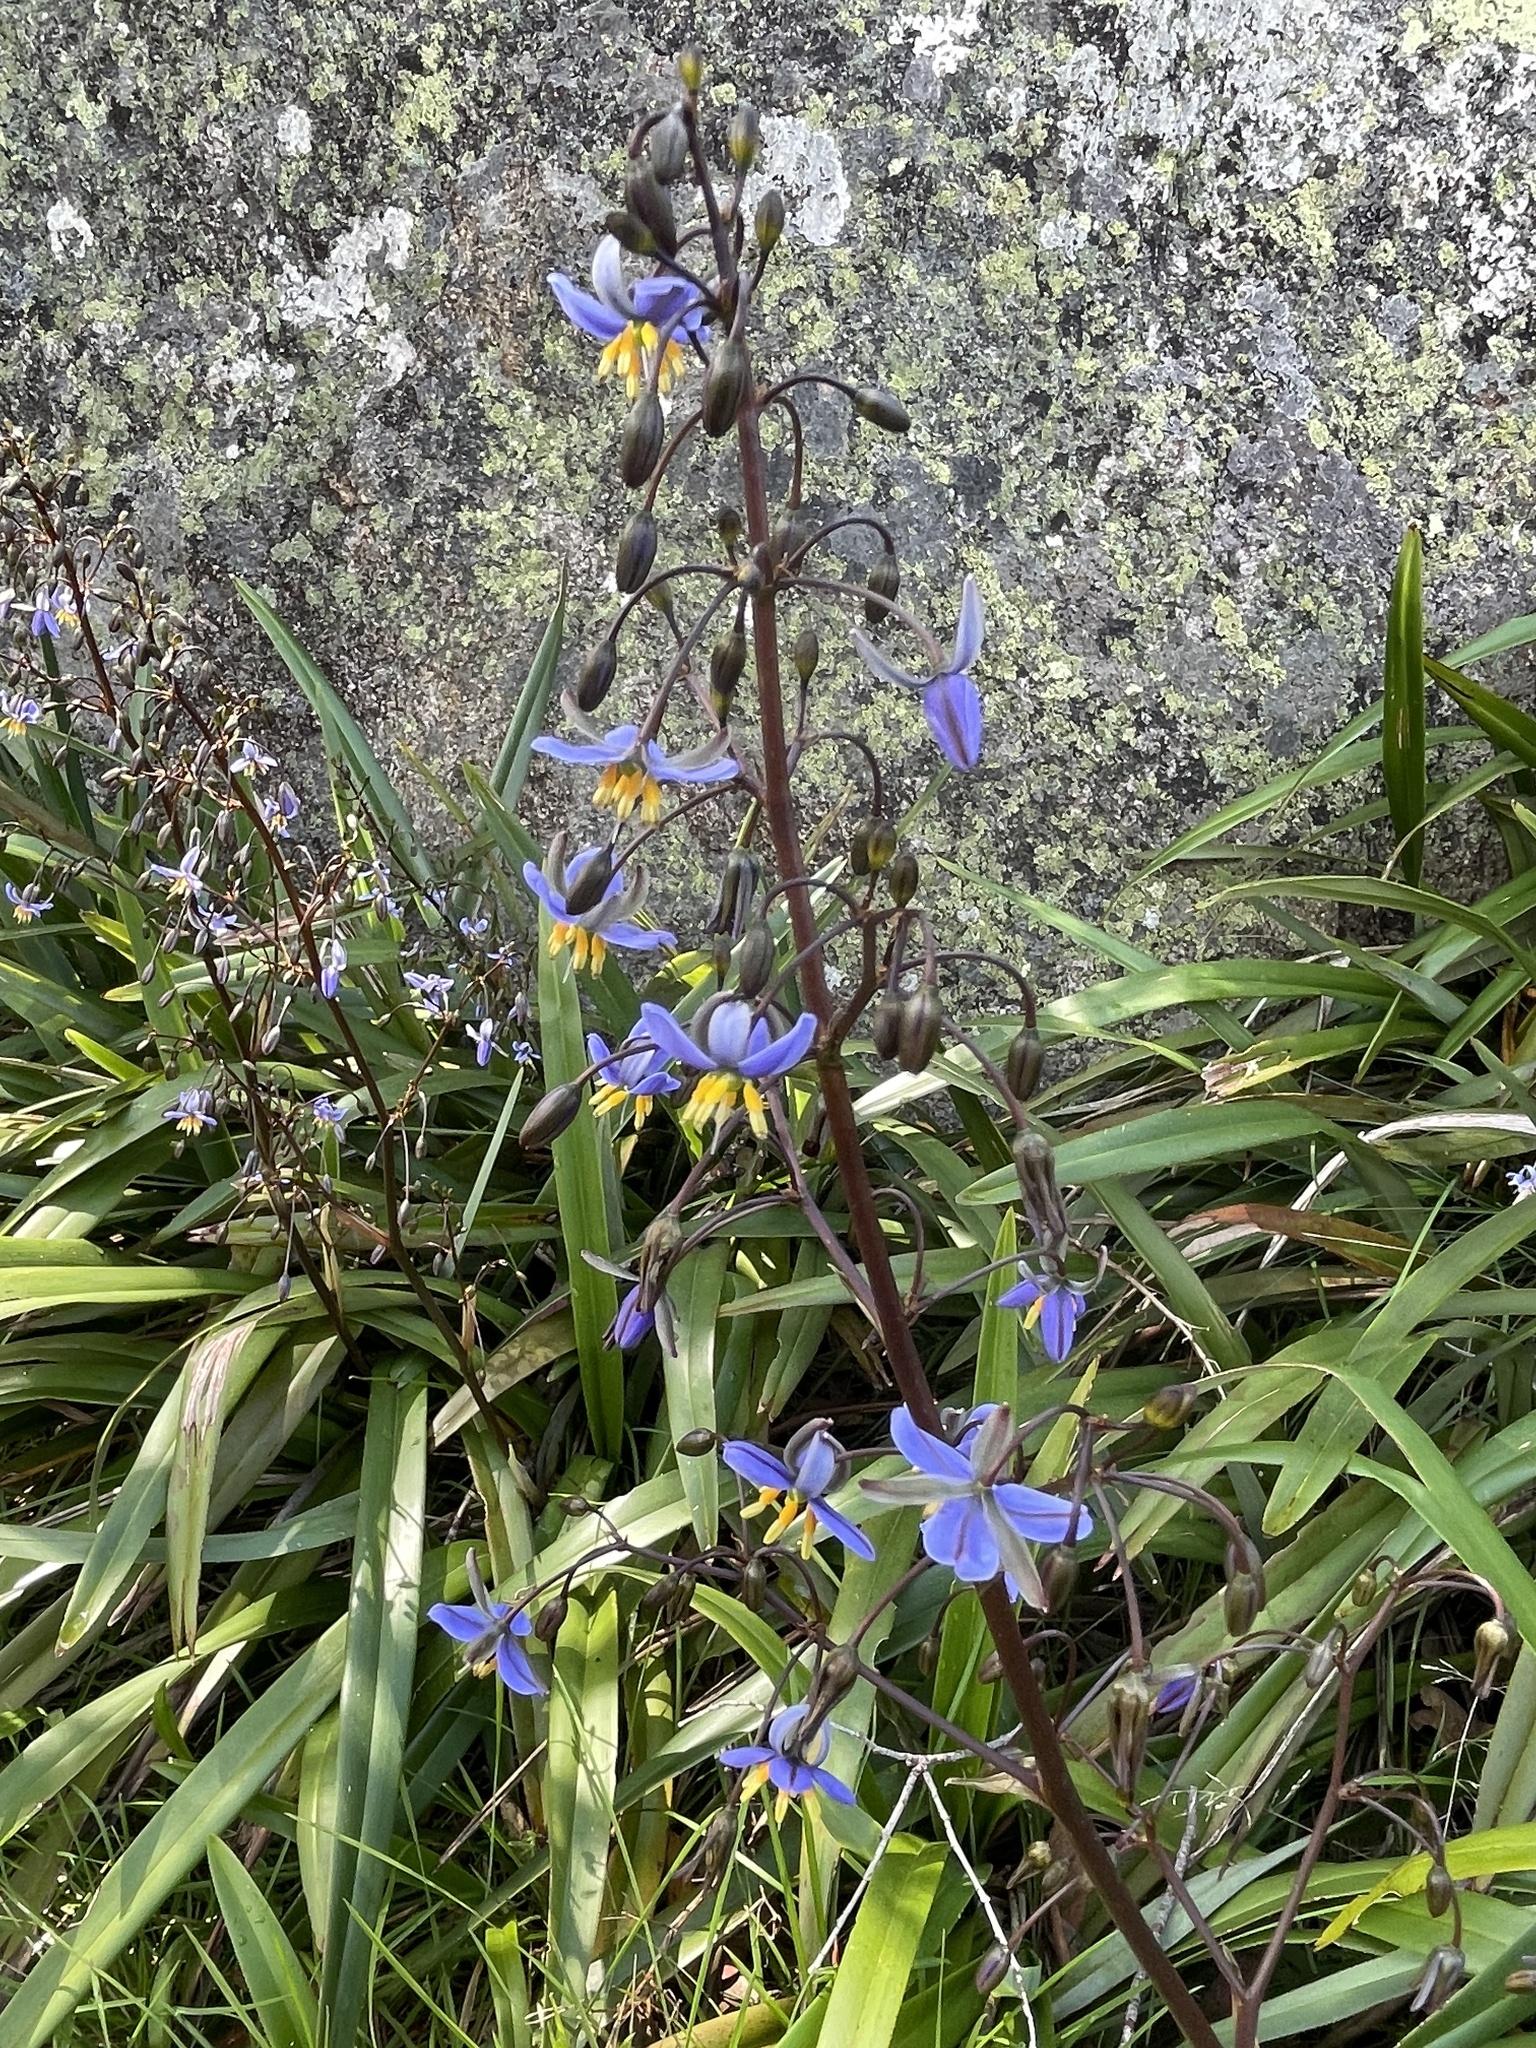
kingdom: Plantae
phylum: Tracheophyta
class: Liliopsida
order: Asparagales
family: Asphodelaceae
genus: Dianella
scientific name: Dianella tasmanica
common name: Tasman flax-lily
